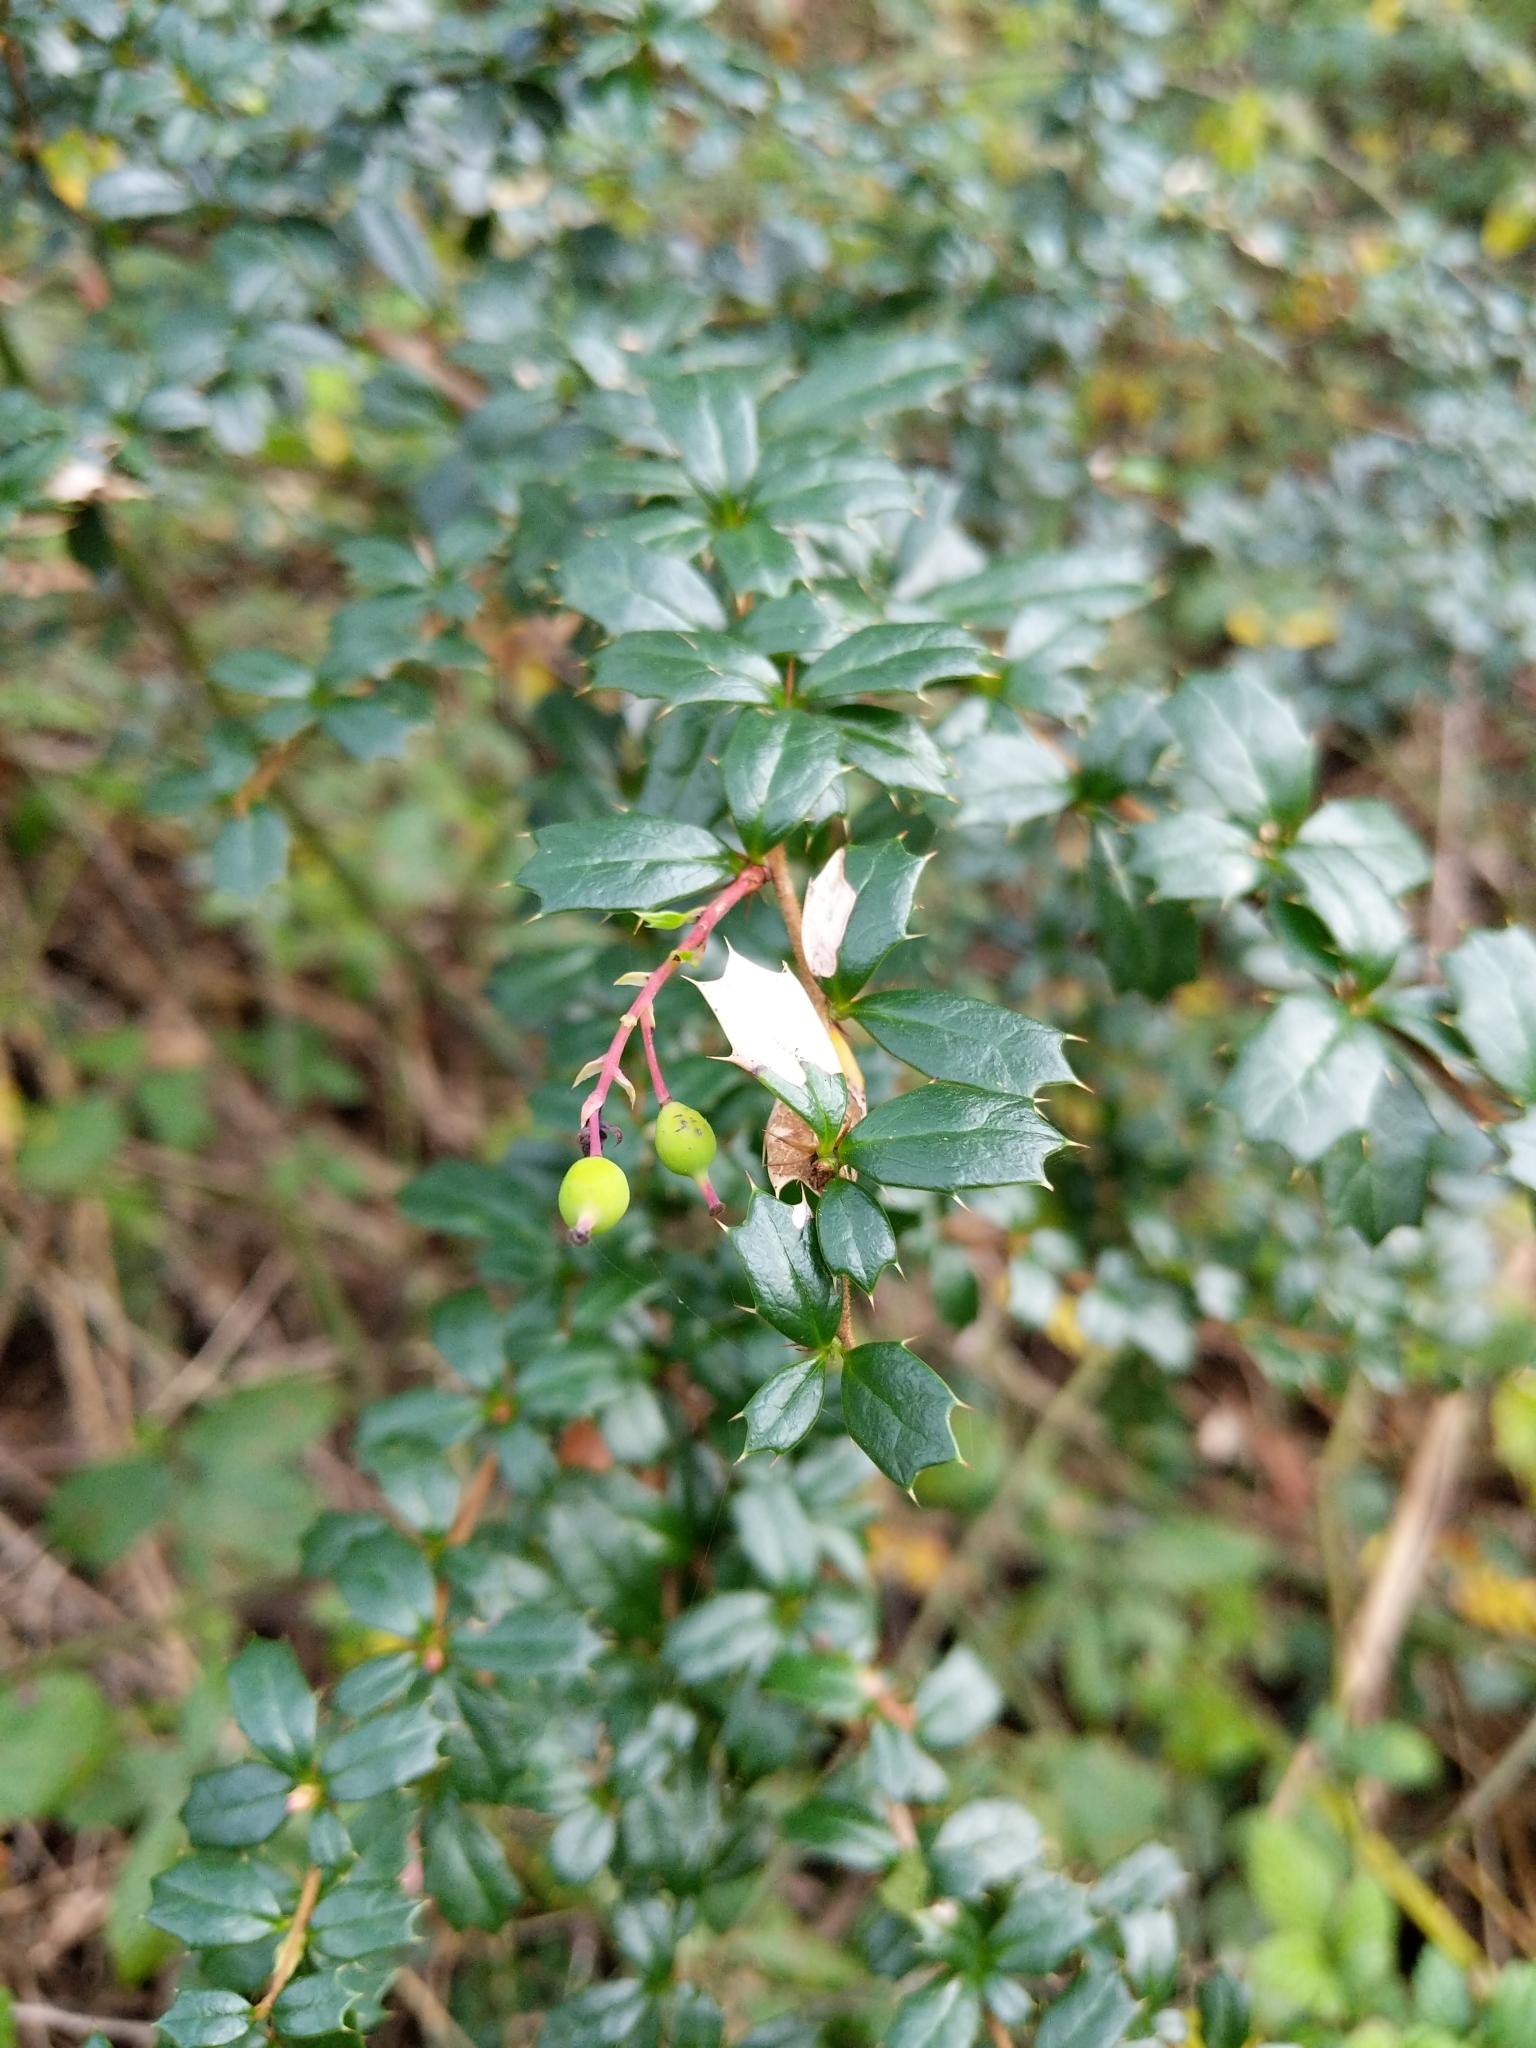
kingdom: Plantae
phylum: Tracheophyta
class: Magnoliopsida
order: Ranunculales
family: Berberidaceae
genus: Berberis
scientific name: Berberis darwinii
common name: Darwin's barberry
